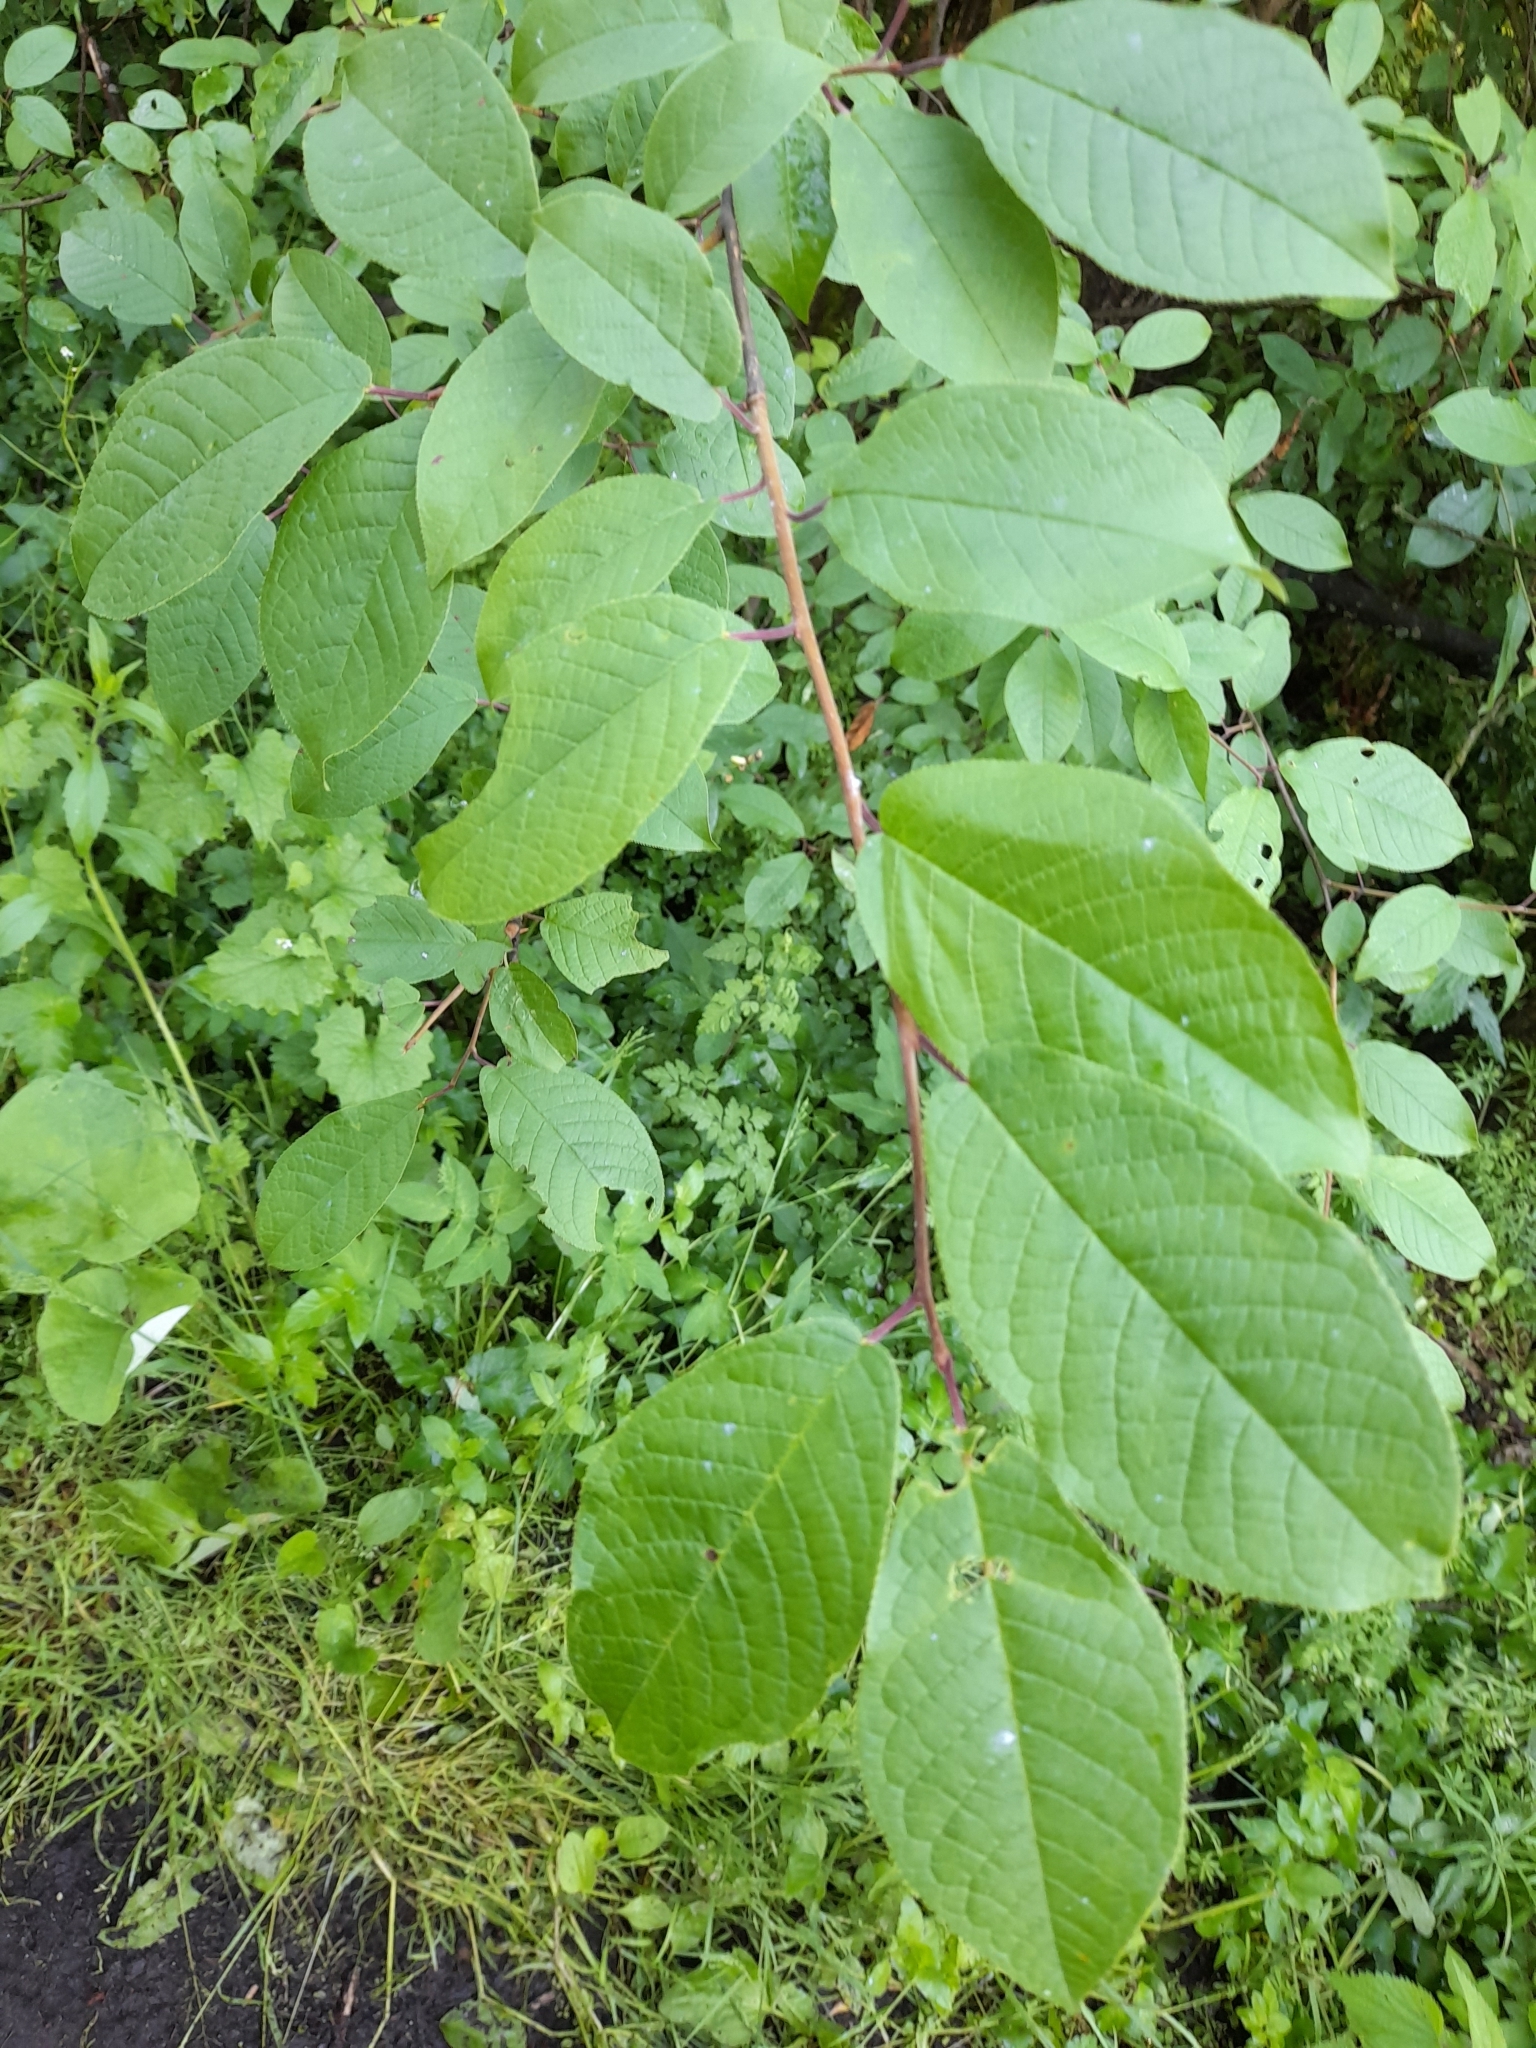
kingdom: Plantae
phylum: Tracheophyta
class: Magnoliopsida
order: Rosales
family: Rosaceae
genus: Prunus
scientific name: Prunus padus
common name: Bird cherry
